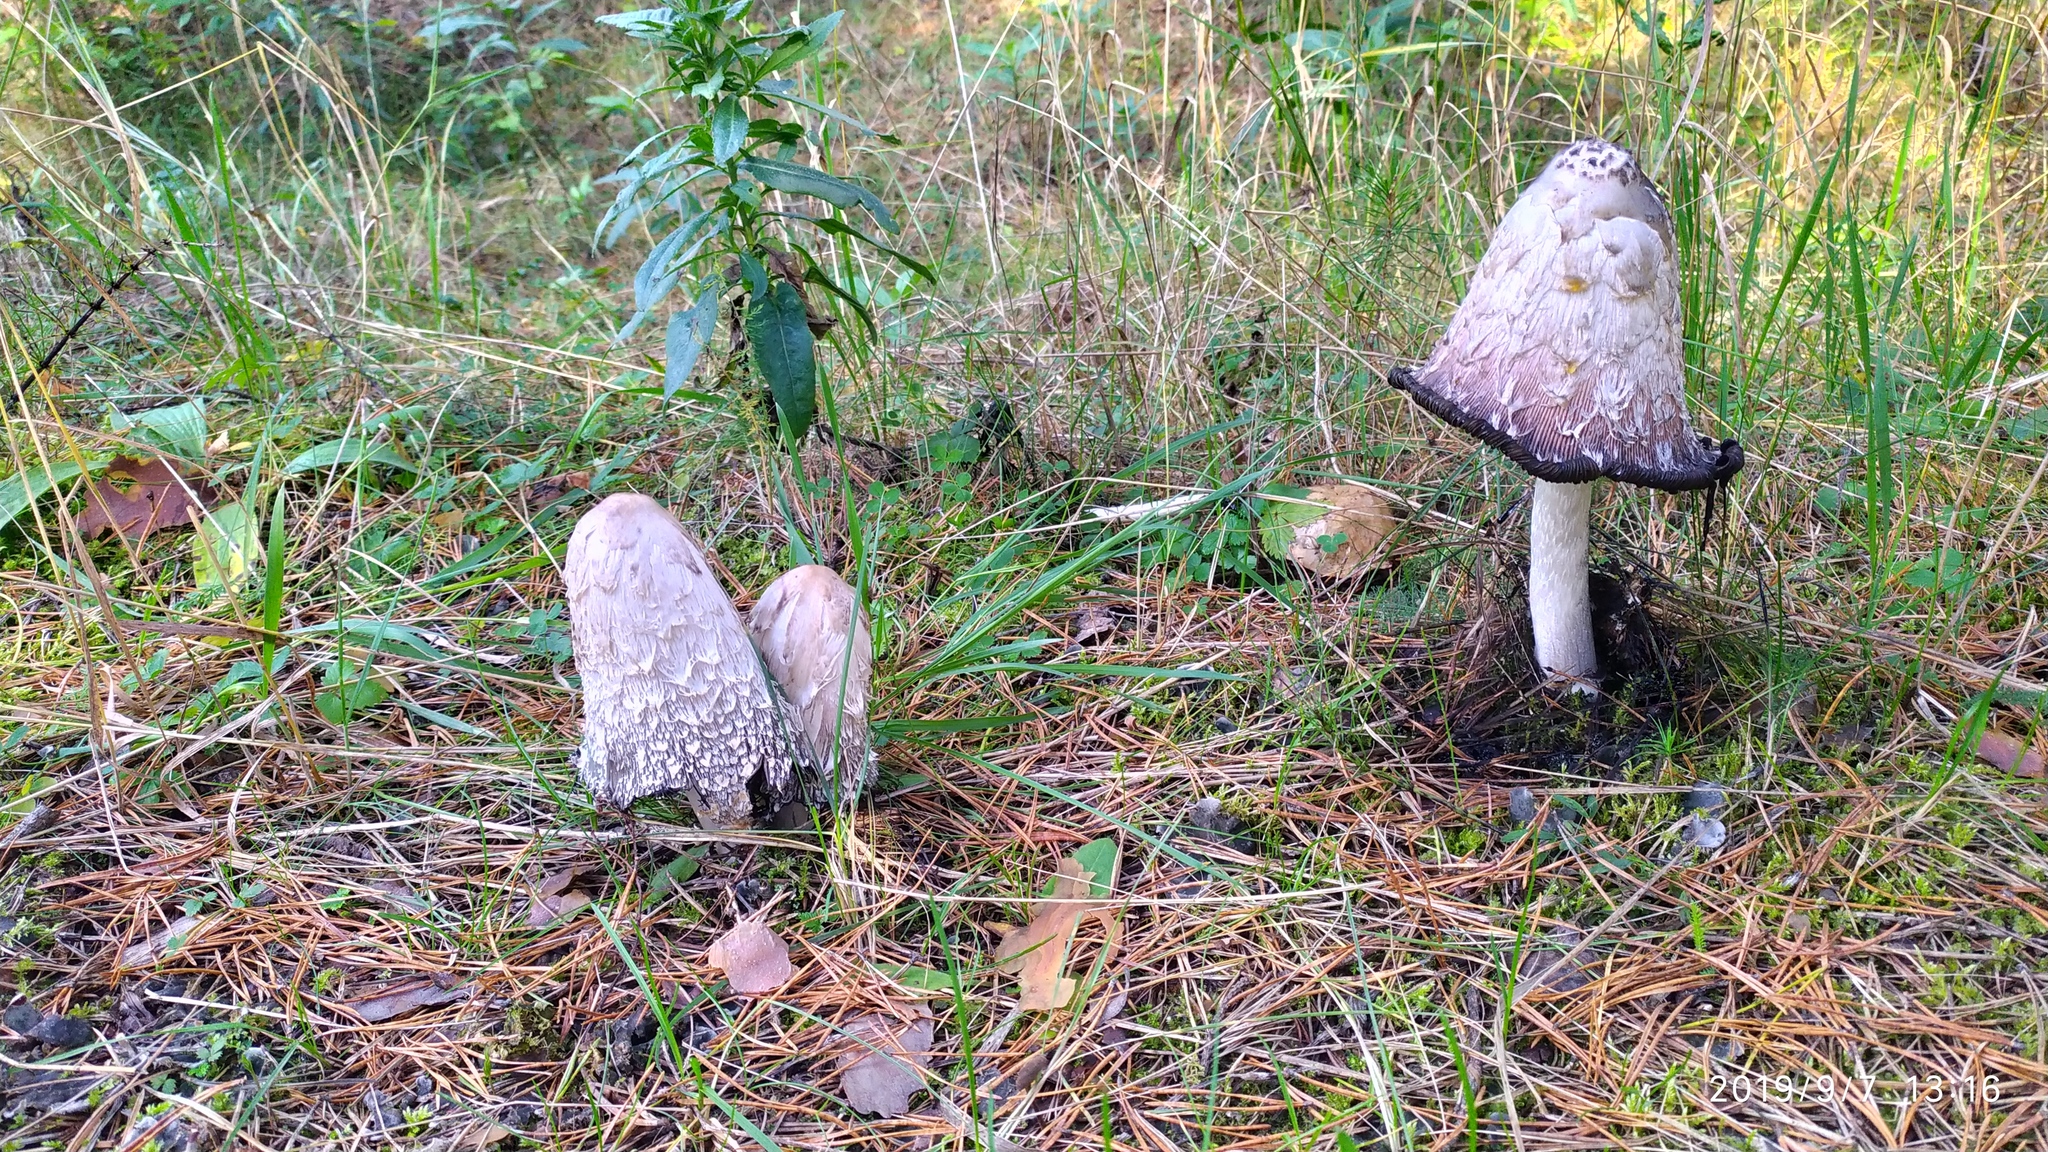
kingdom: Fungi
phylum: Basidiomycota
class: Agaricomycetes
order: Agaricales
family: Agaricaceae
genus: Coprinus
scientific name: Coprinus comatus
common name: Lawyer's wig
